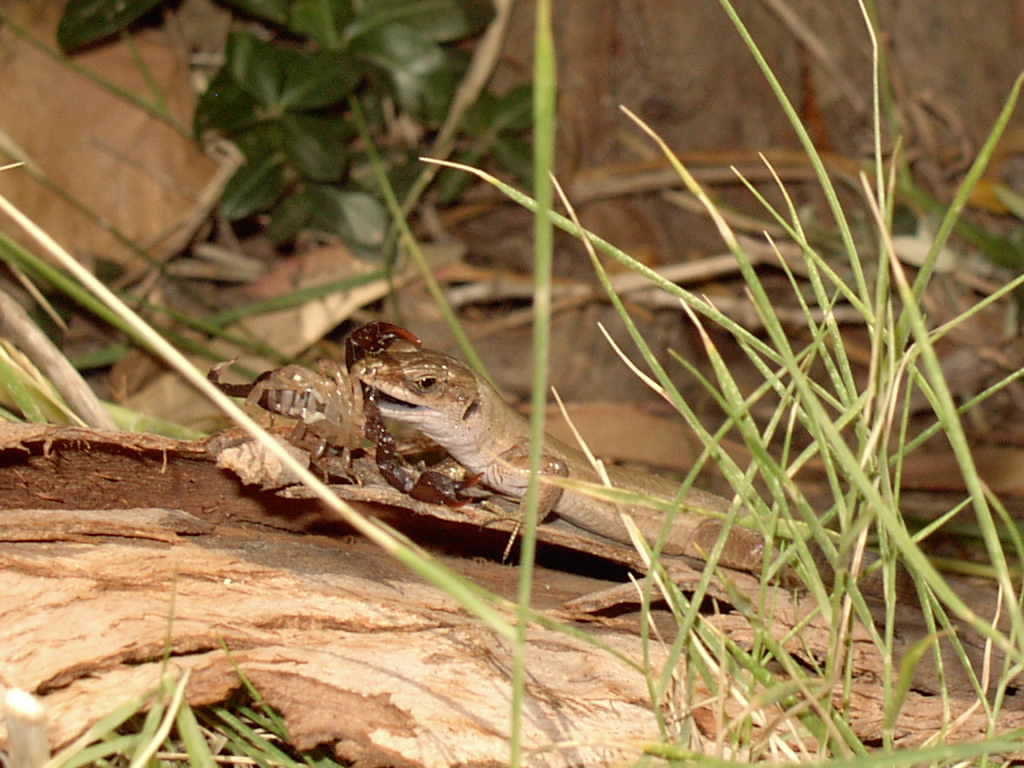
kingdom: Animalia
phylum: Chordata
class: Squamata
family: Lacertidae
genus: Podarcis
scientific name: Podarcis siculus
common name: Italian wall lizard
